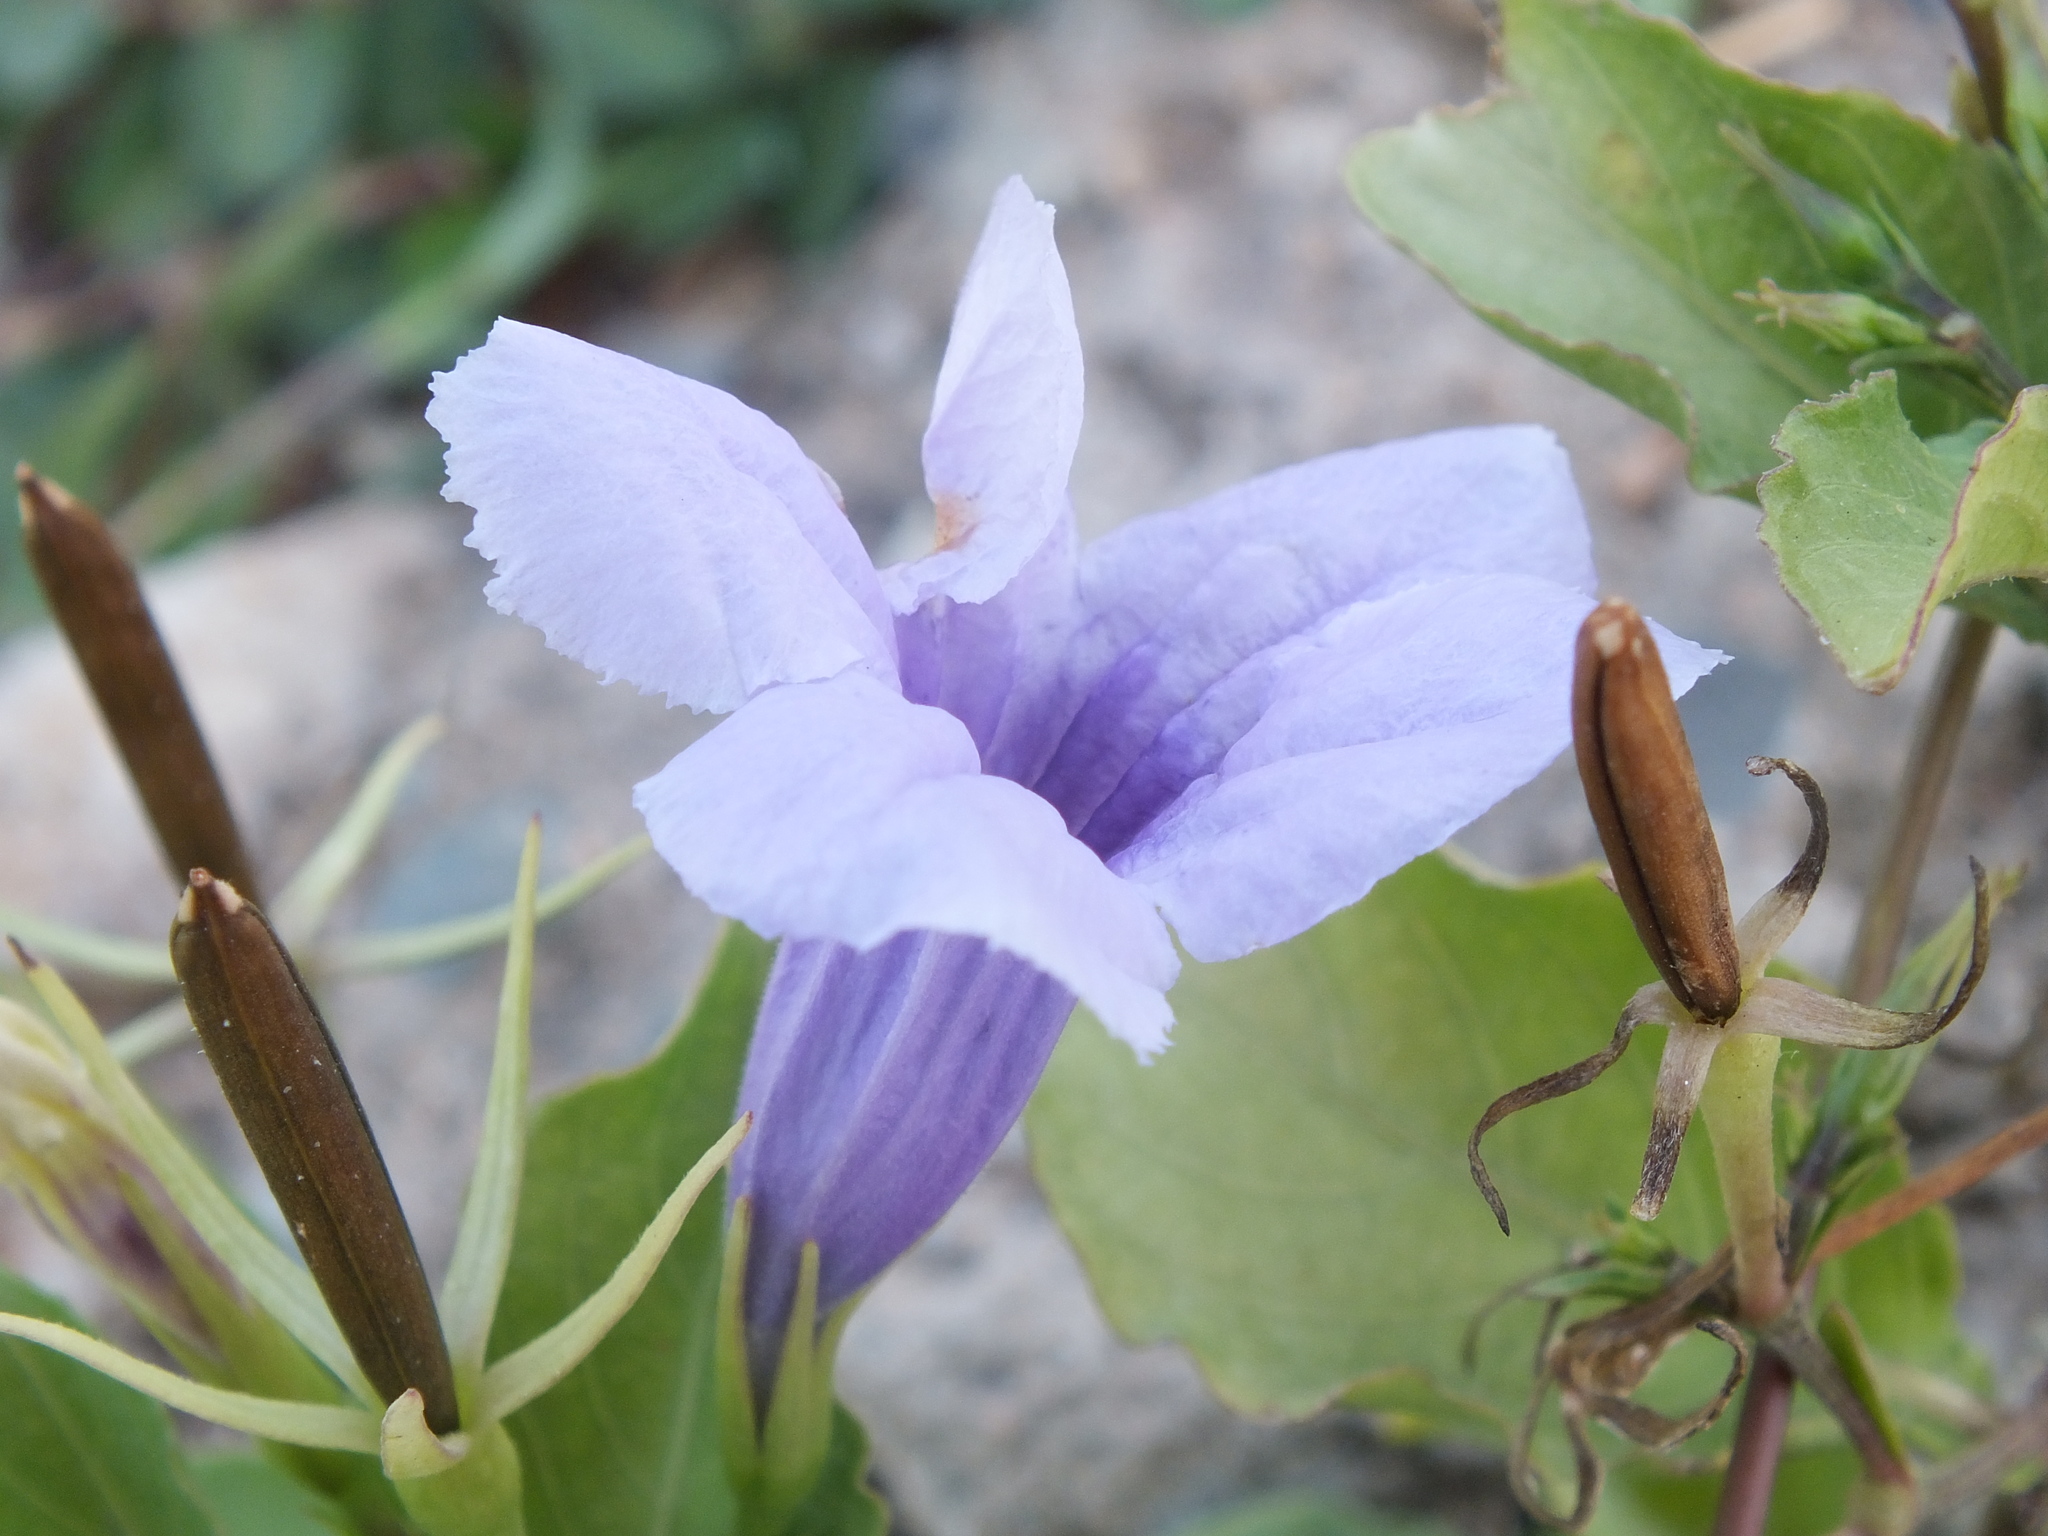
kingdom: Plantae
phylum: Tracheophyta
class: Magnoliopsida
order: Lamiales
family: Acanthaceae
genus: Ruellia
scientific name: Ruellia tuberosa
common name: Devil's bit
